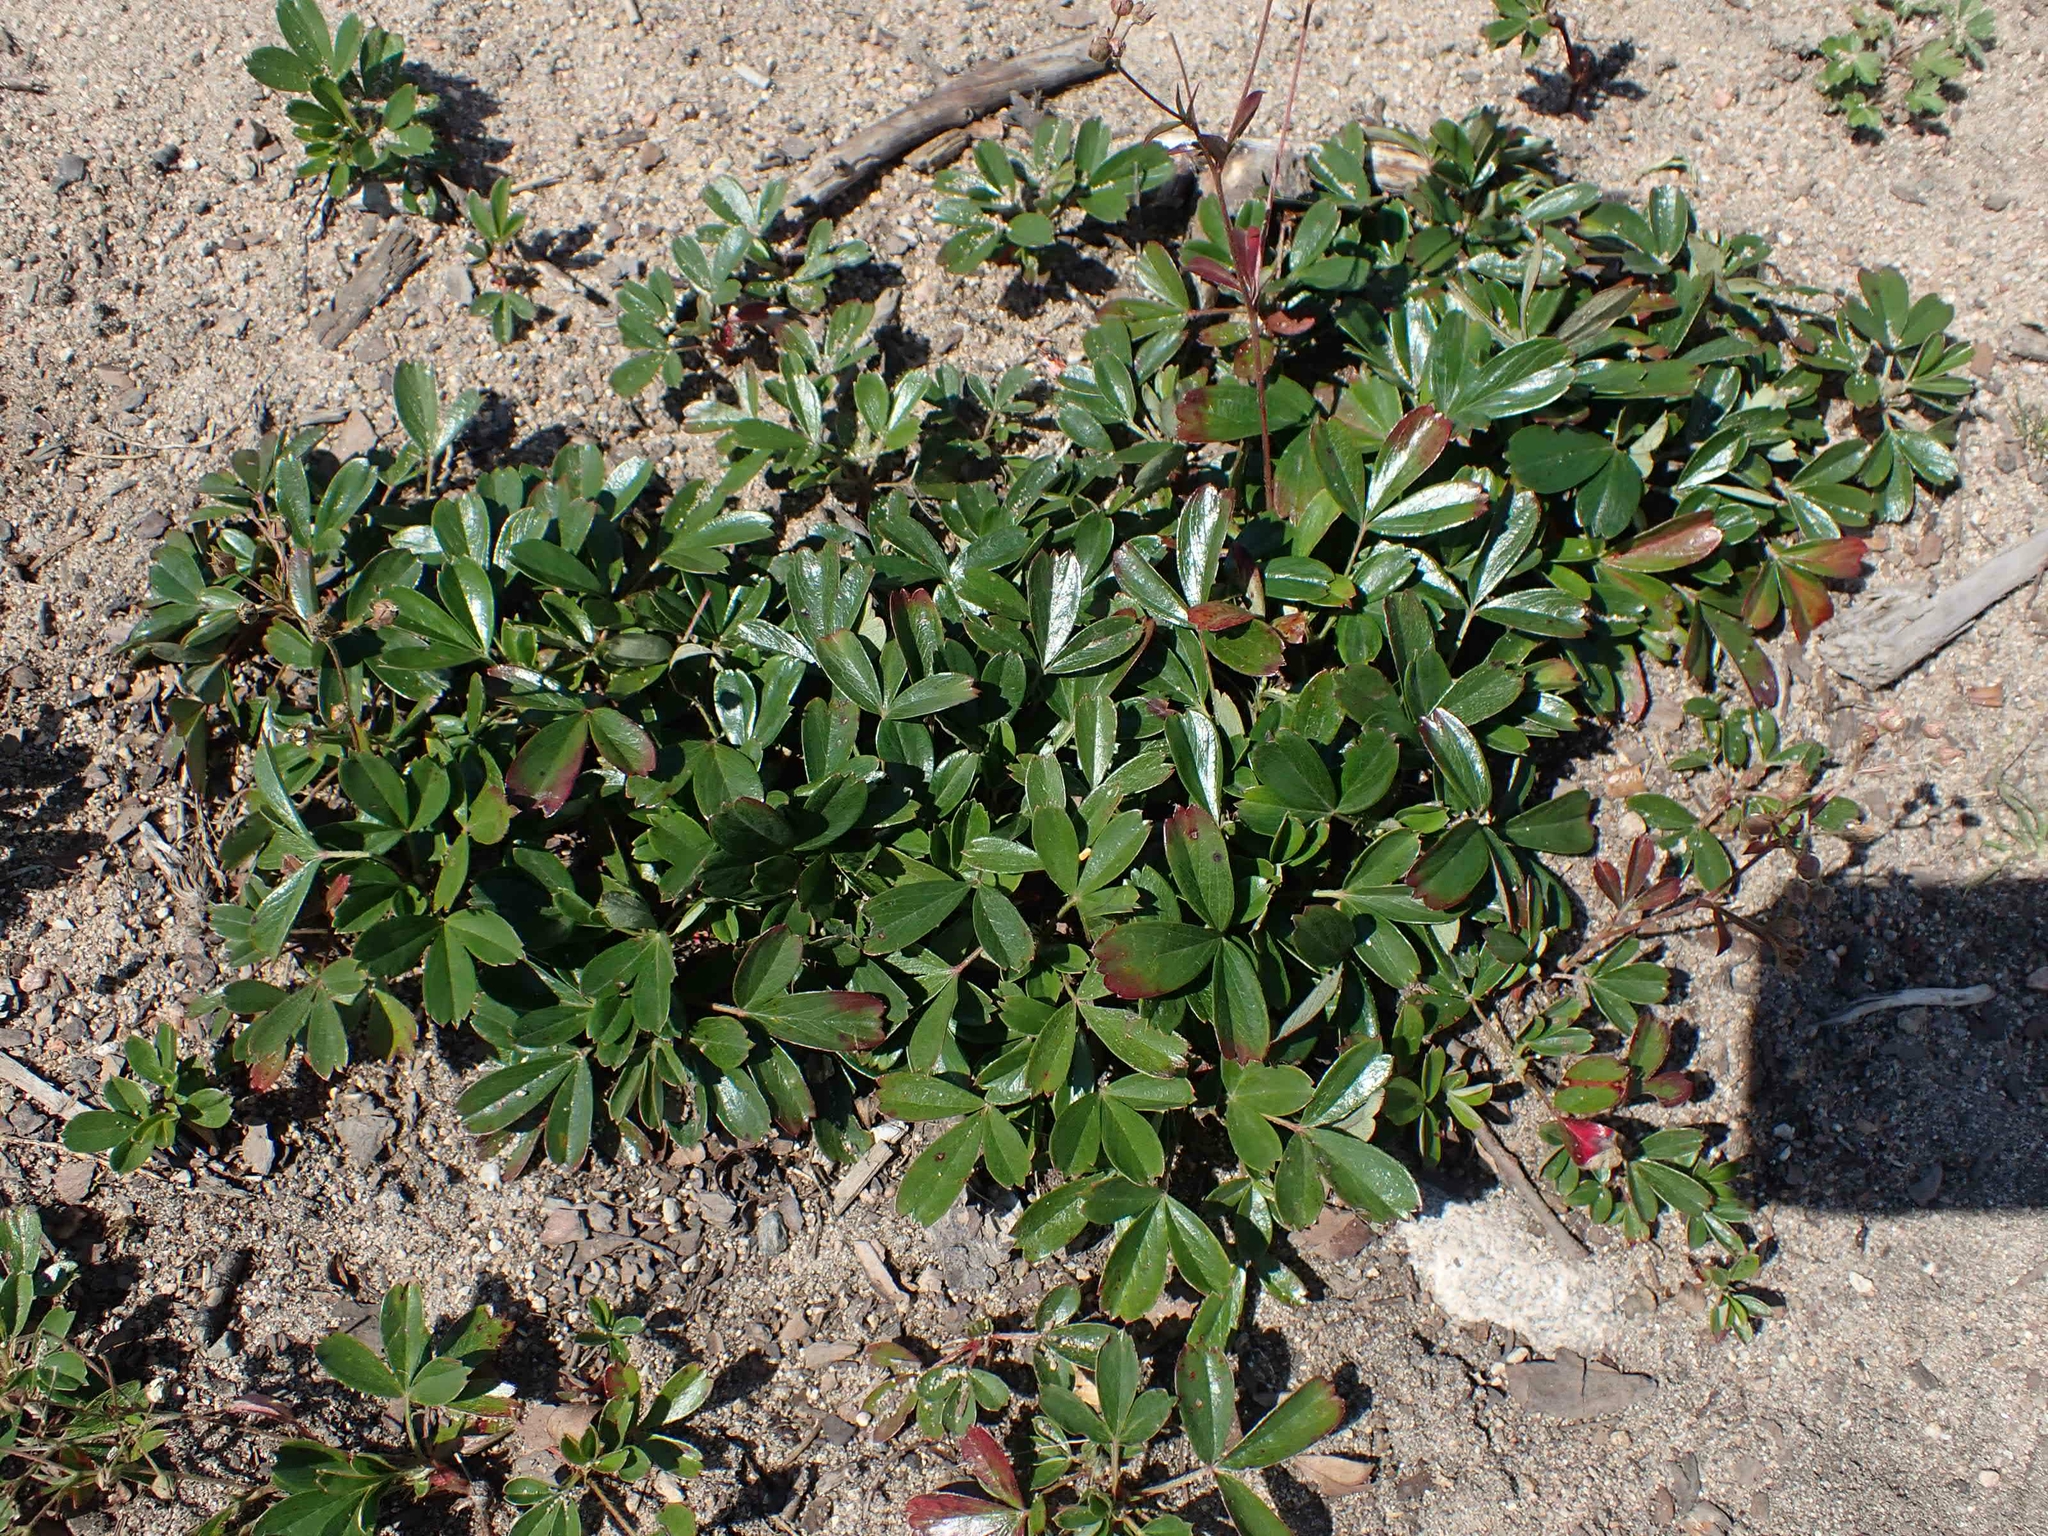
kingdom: Plantae
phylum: Tracheophyta
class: Magnoliopsida
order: Rosales
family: Rosaceae
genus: Sibbaldia
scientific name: Sibbaldia tridentata
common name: Three-toothed cinquefoil
